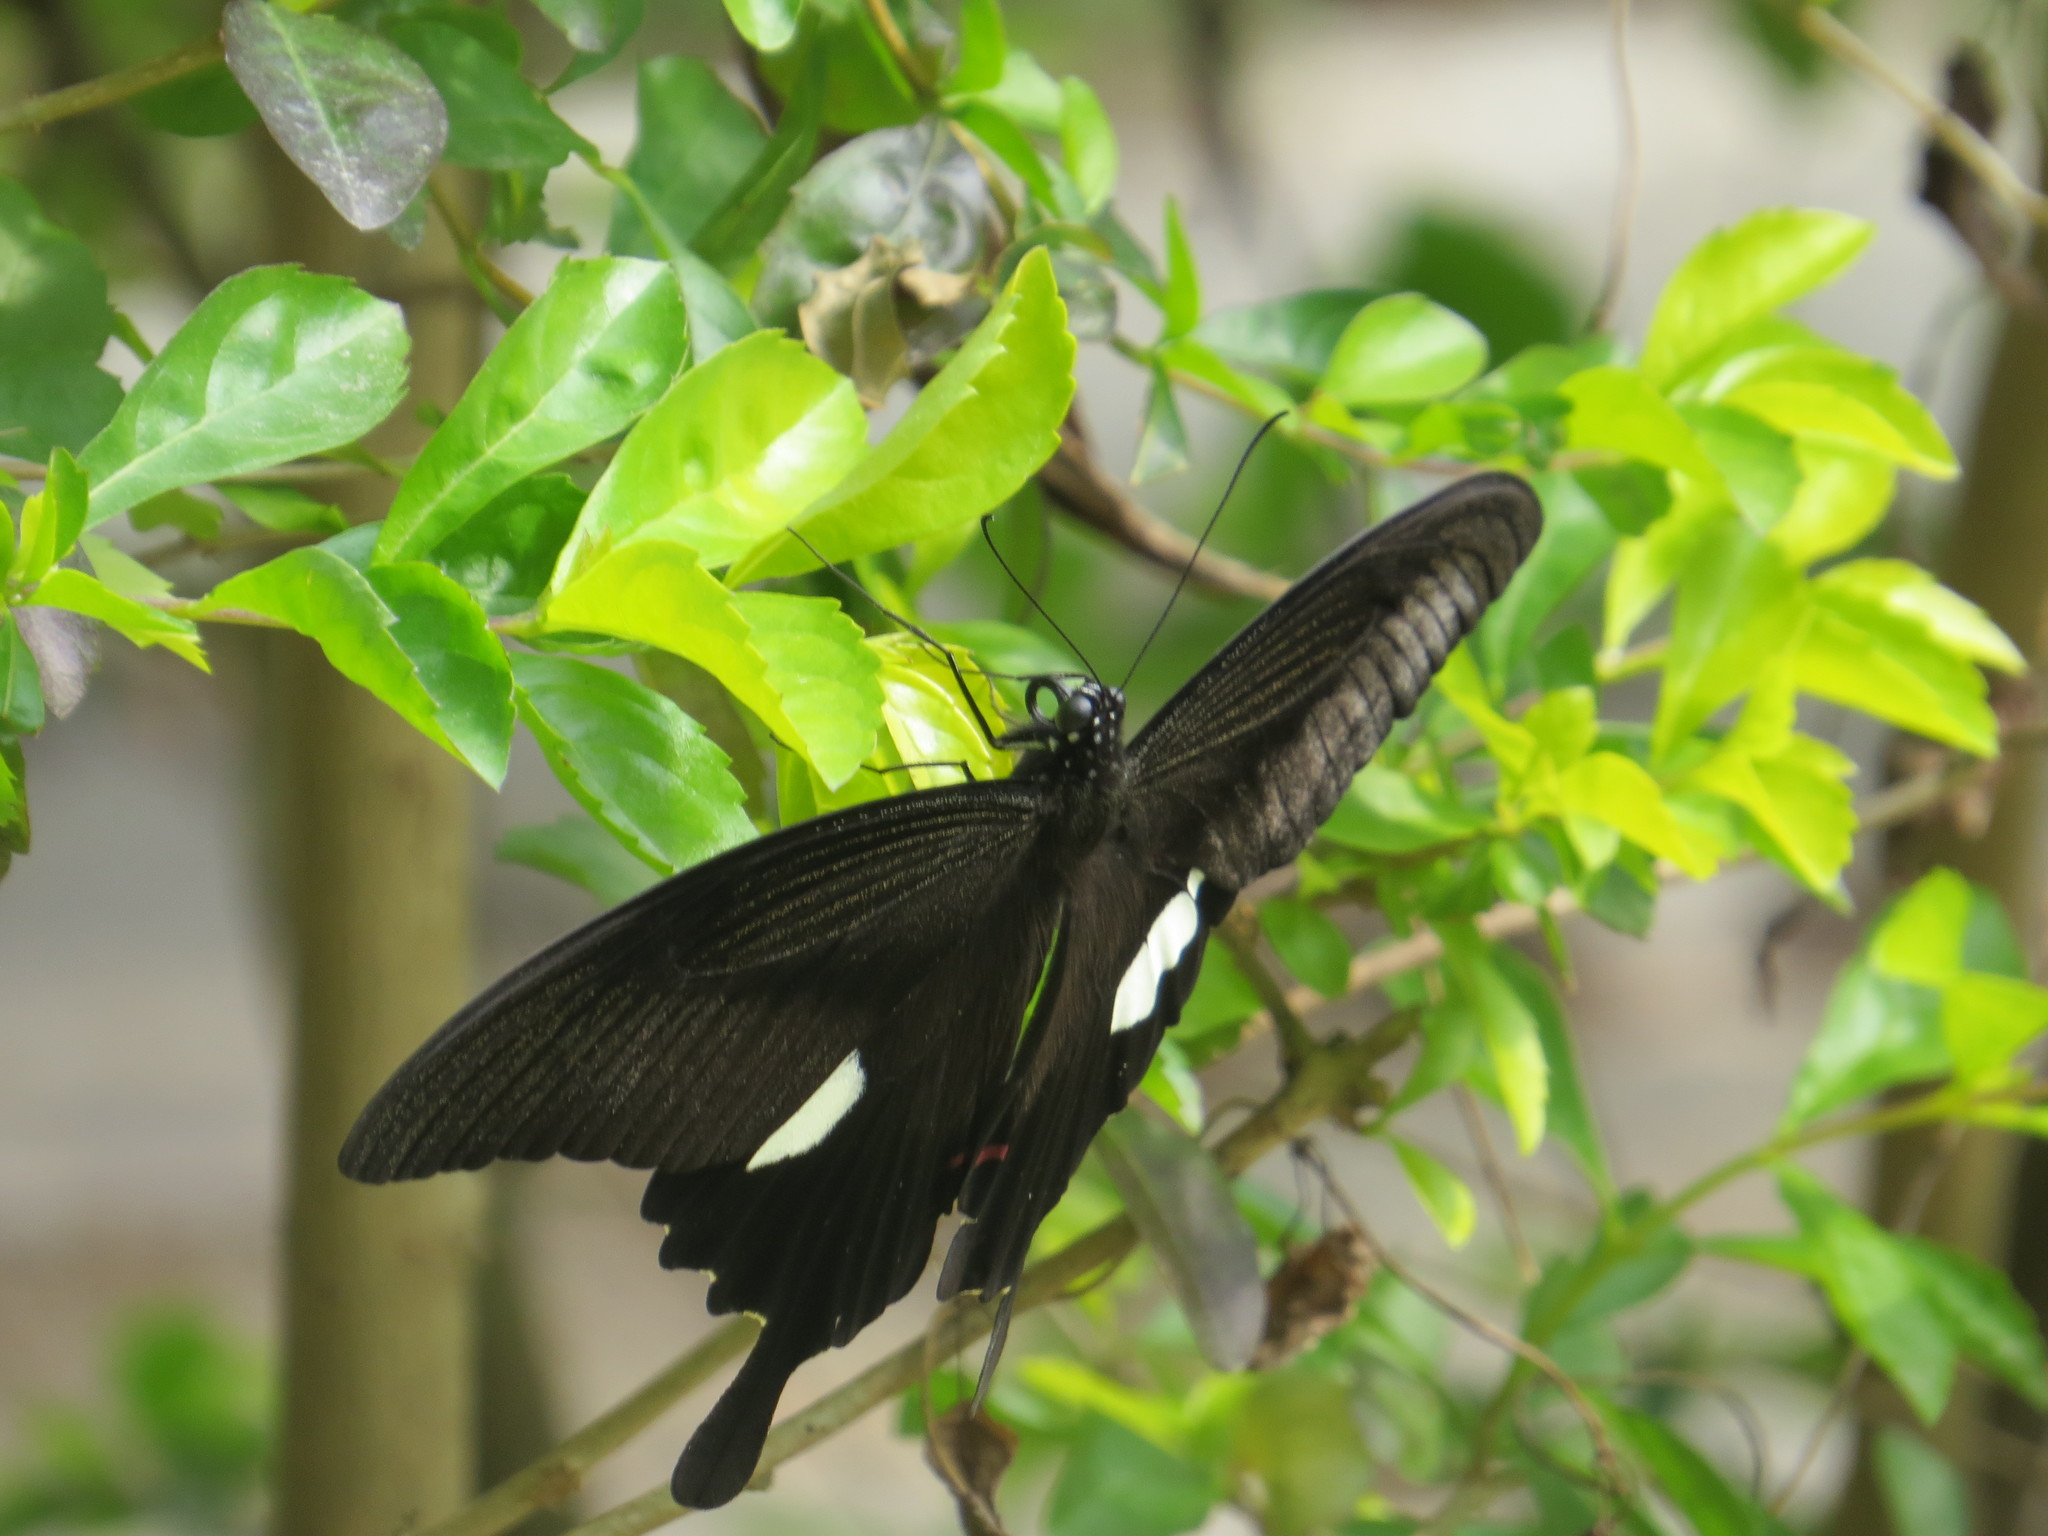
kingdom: Animalia
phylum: Arthropoda
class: Insecta
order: Lepidoptera
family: Papilionidae
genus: Papilio
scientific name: Papilio helenus
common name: Red helen
